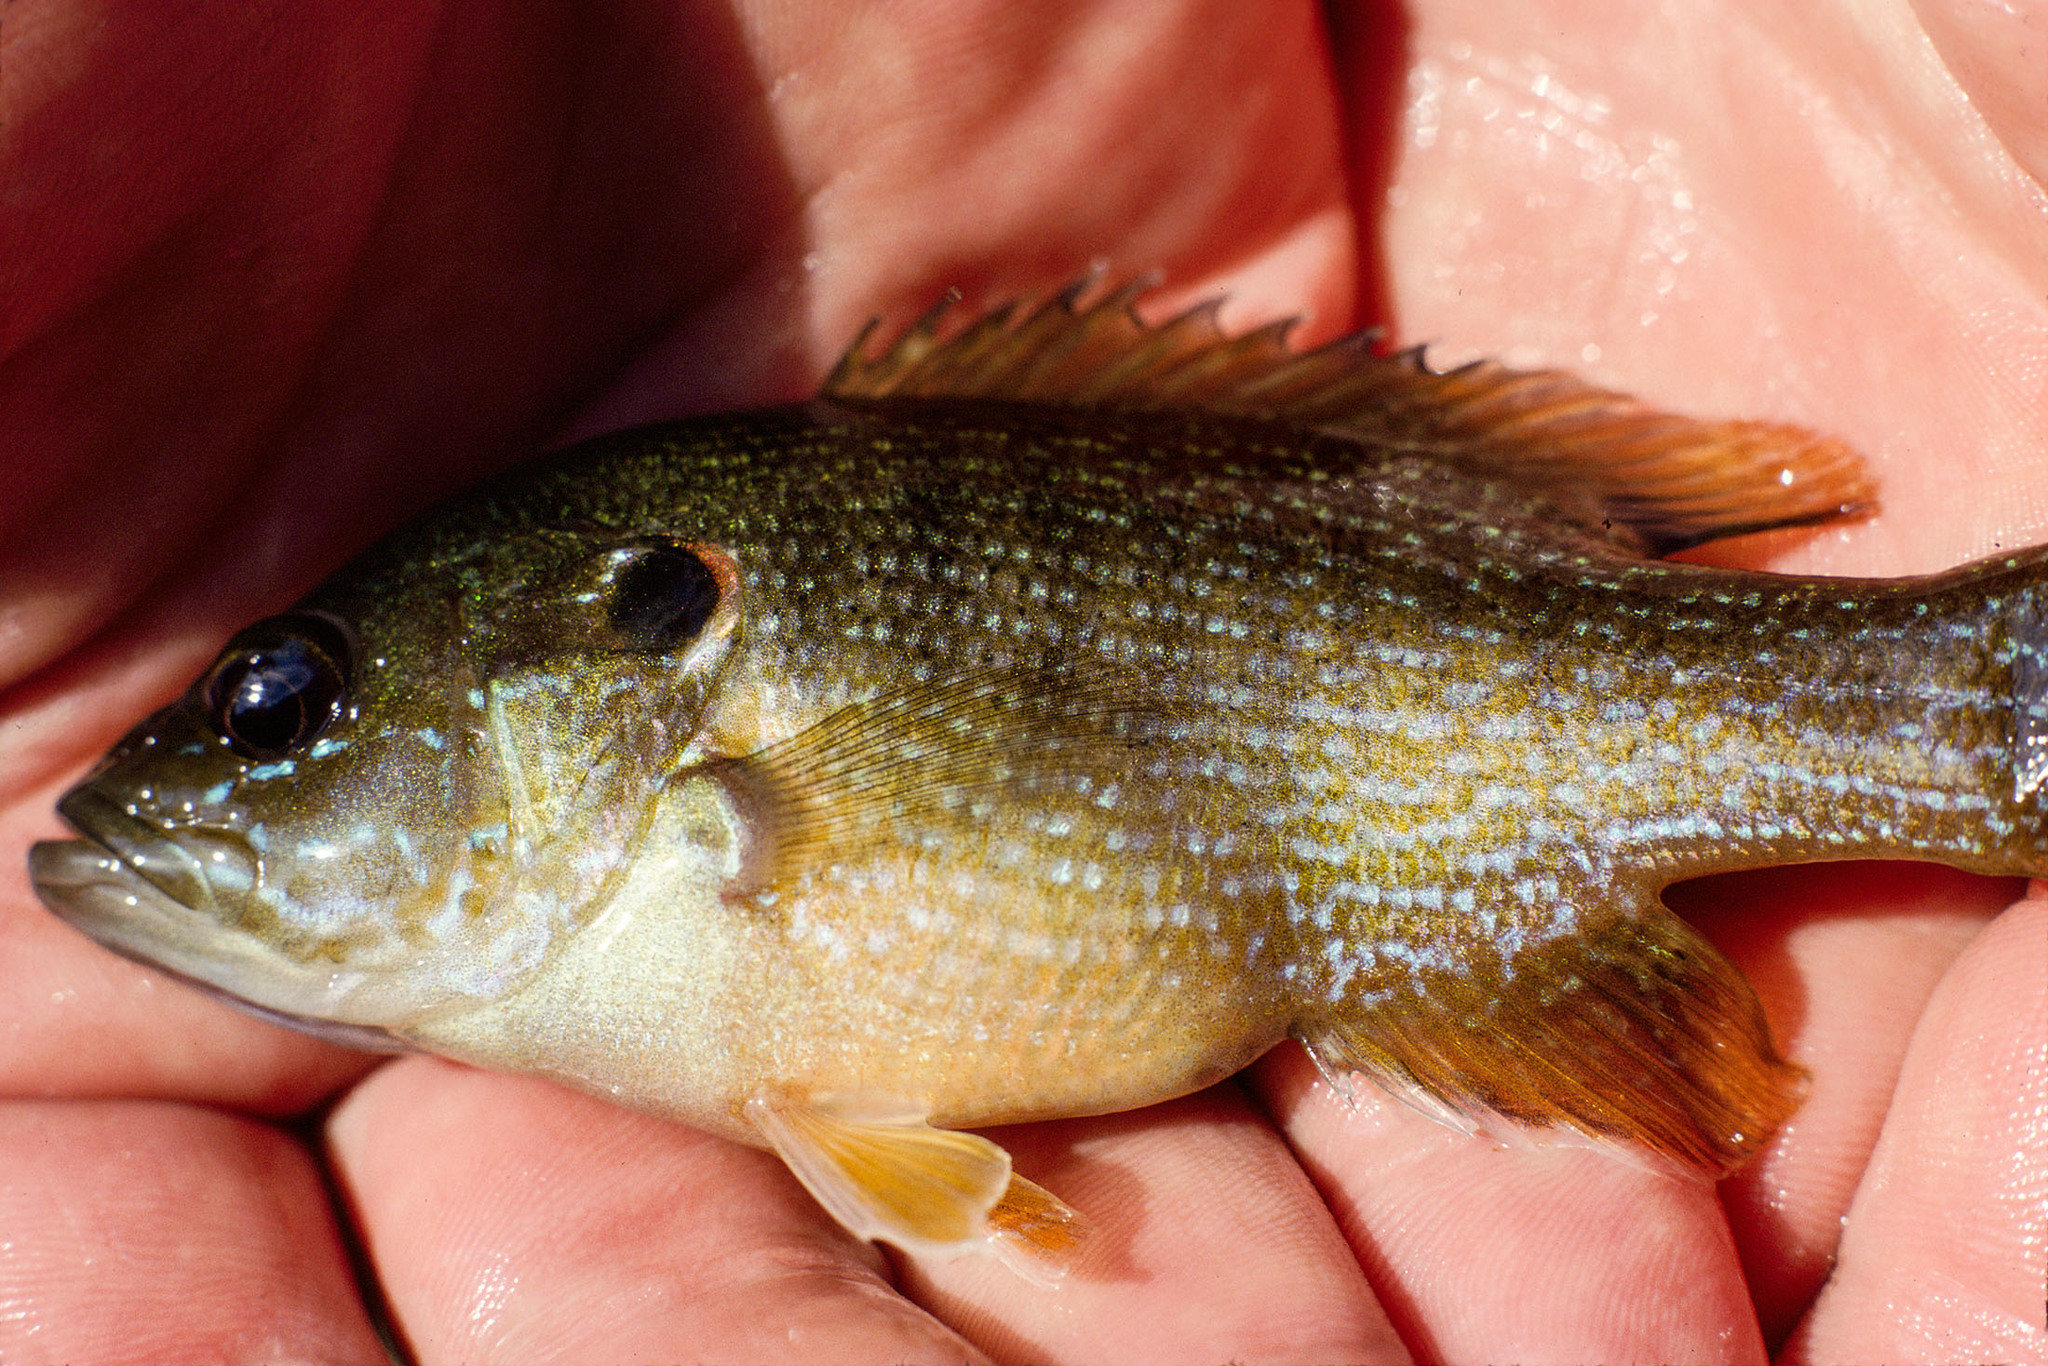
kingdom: Animalia
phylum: Chordata
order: Perciformes
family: Centrarchidae
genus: Lepomis
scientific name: Lepomis cyanellus
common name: Green sunfish
